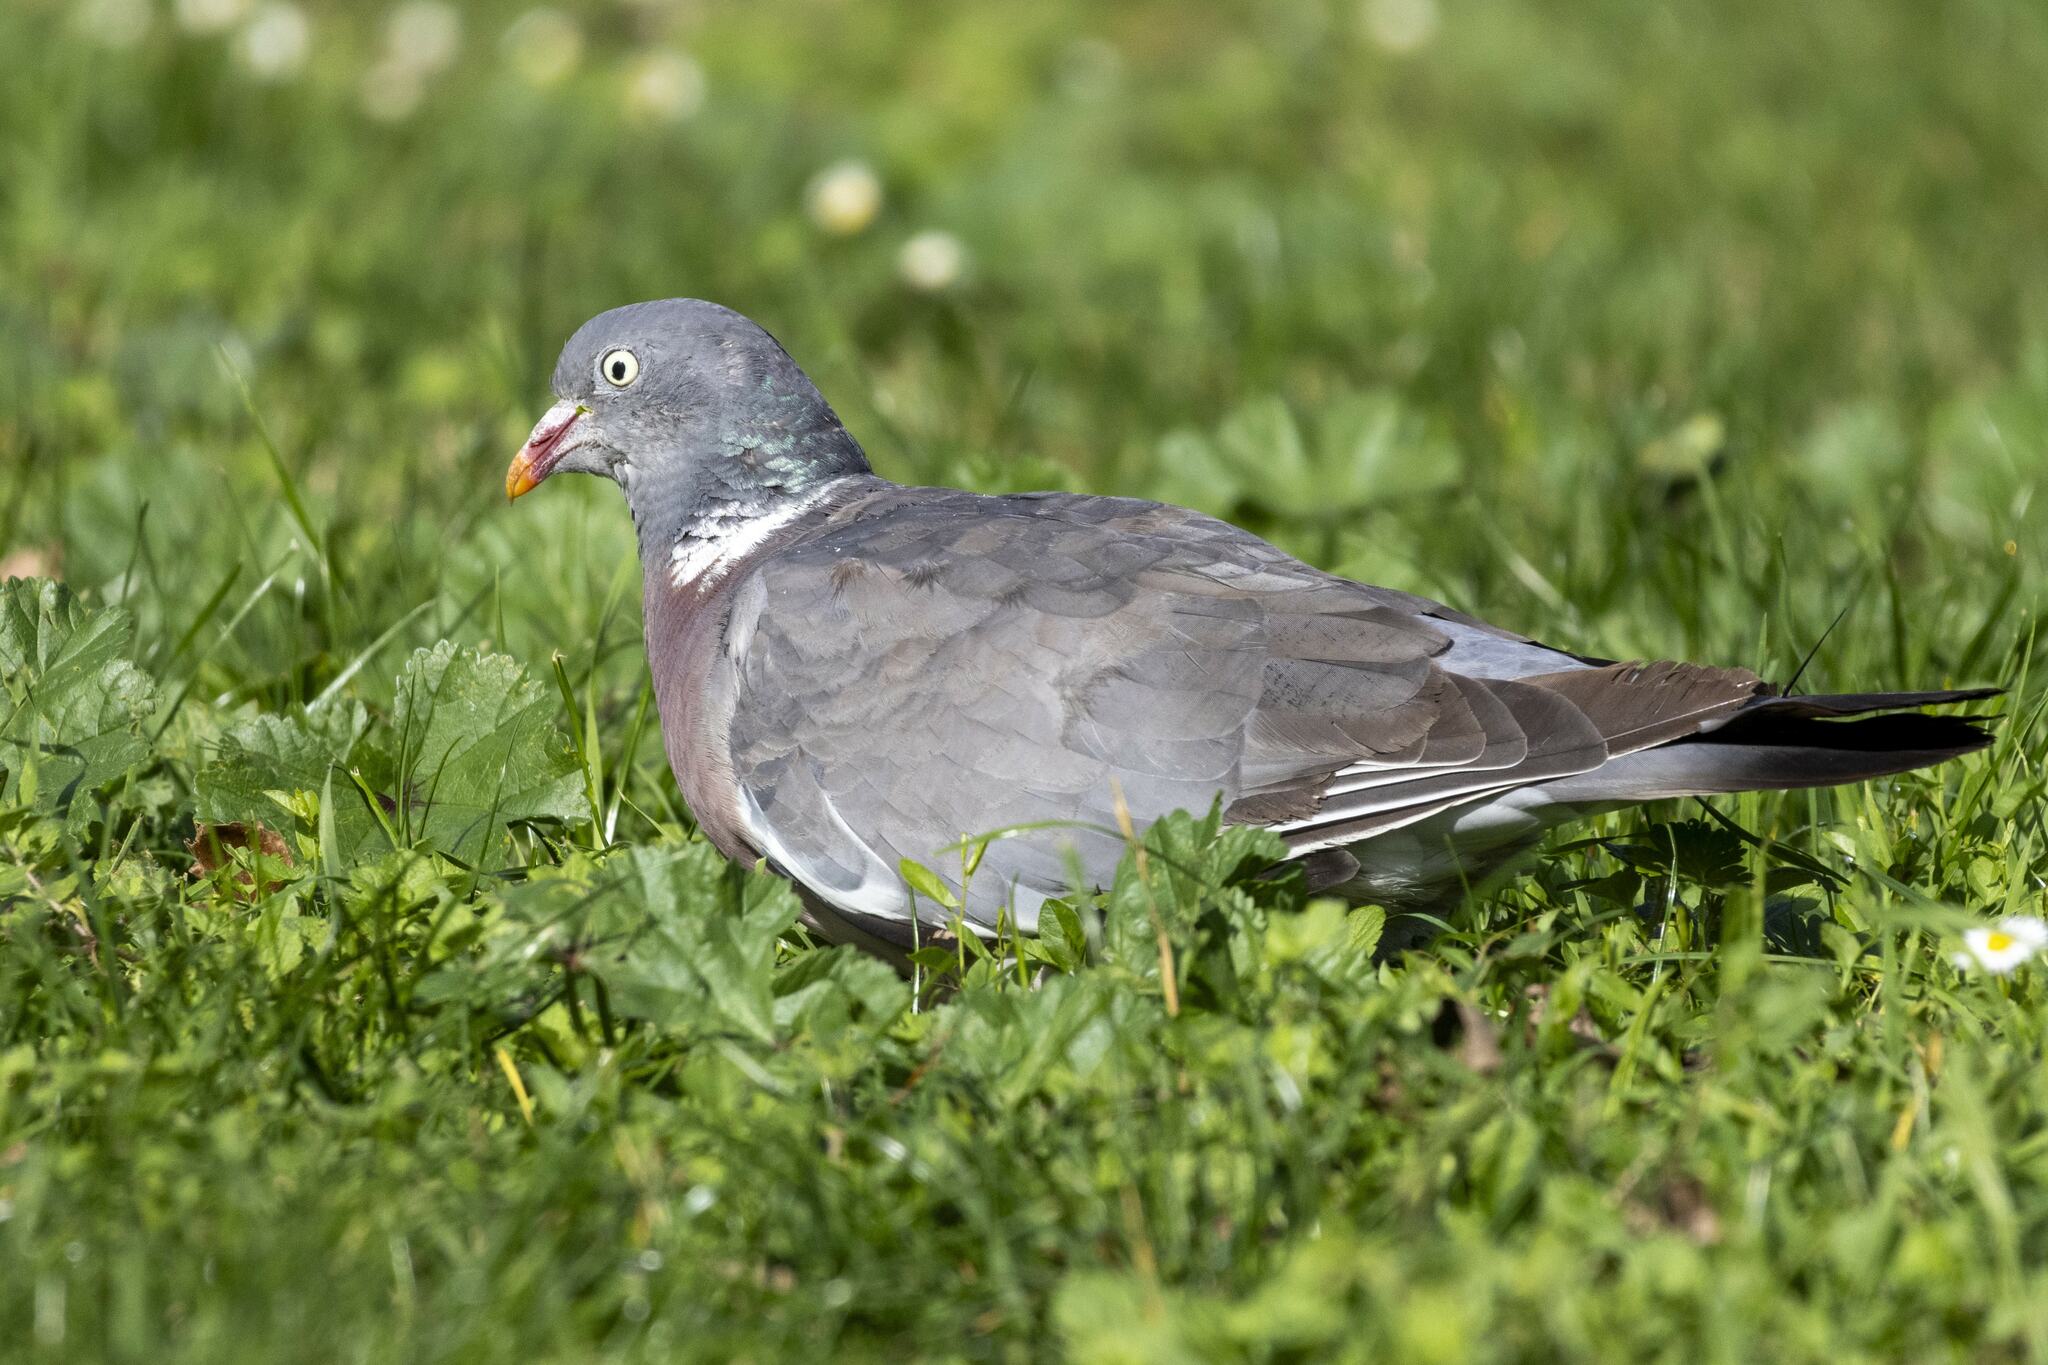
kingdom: Animalia
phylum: Chordata
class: Aves
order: Columbiformes
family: Columbidae
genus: Columba
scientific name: Columba palumbus
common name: Common wood pigeon
